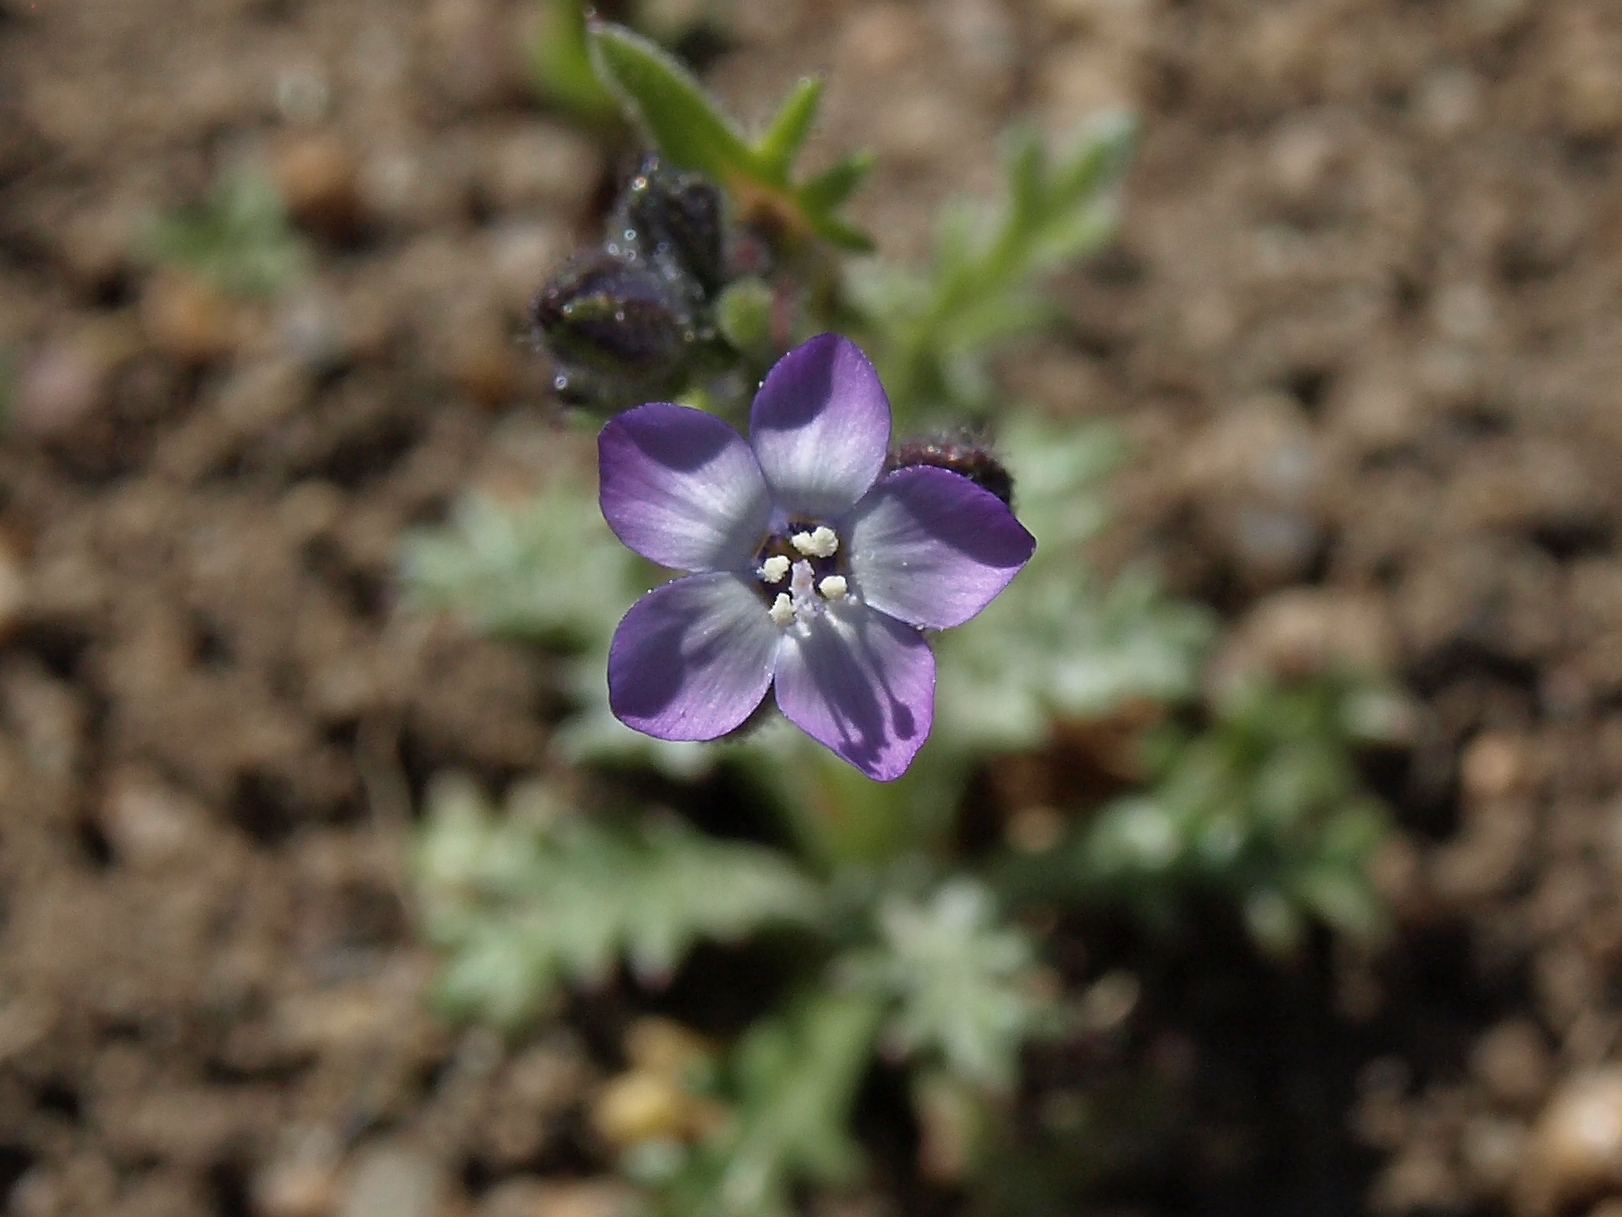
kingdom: Plantae
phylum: Tracheophyta
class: Magnoliopsida
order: Ericales
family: Polemoniaceae
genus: Gilia
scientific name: Gilia brecciarum
